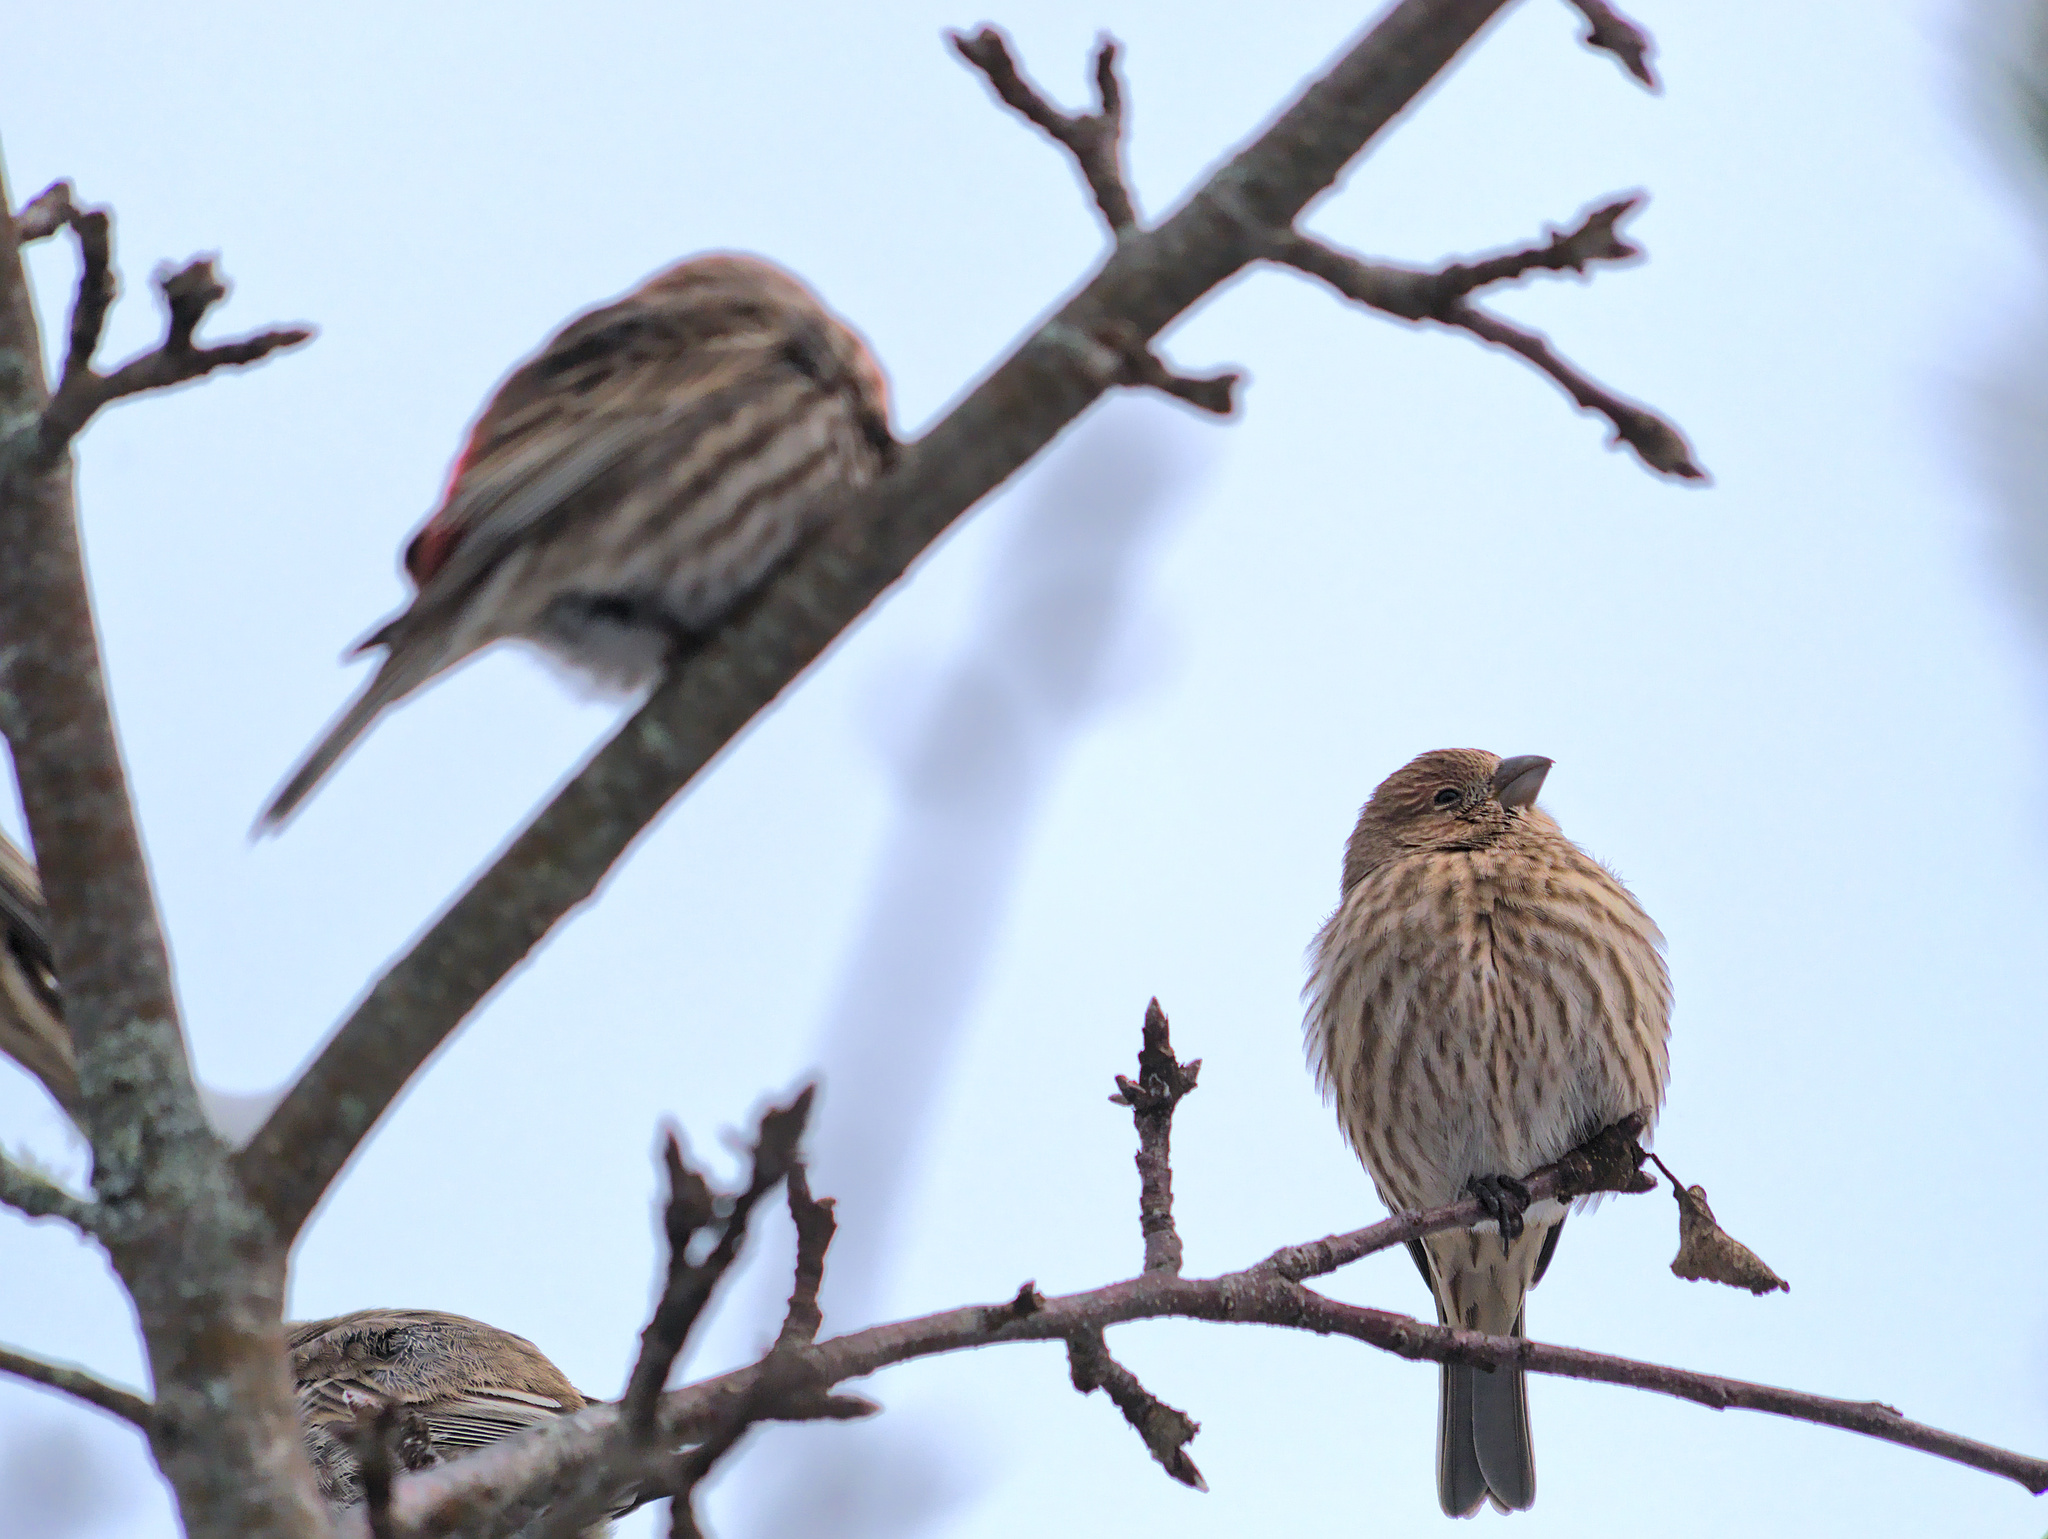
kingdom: Animalia
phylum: Chordata
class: Aves
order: Passeriformes
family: Fringillidae
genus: Haemorhous
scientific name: Haemorhous mexicanus
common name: House finch
